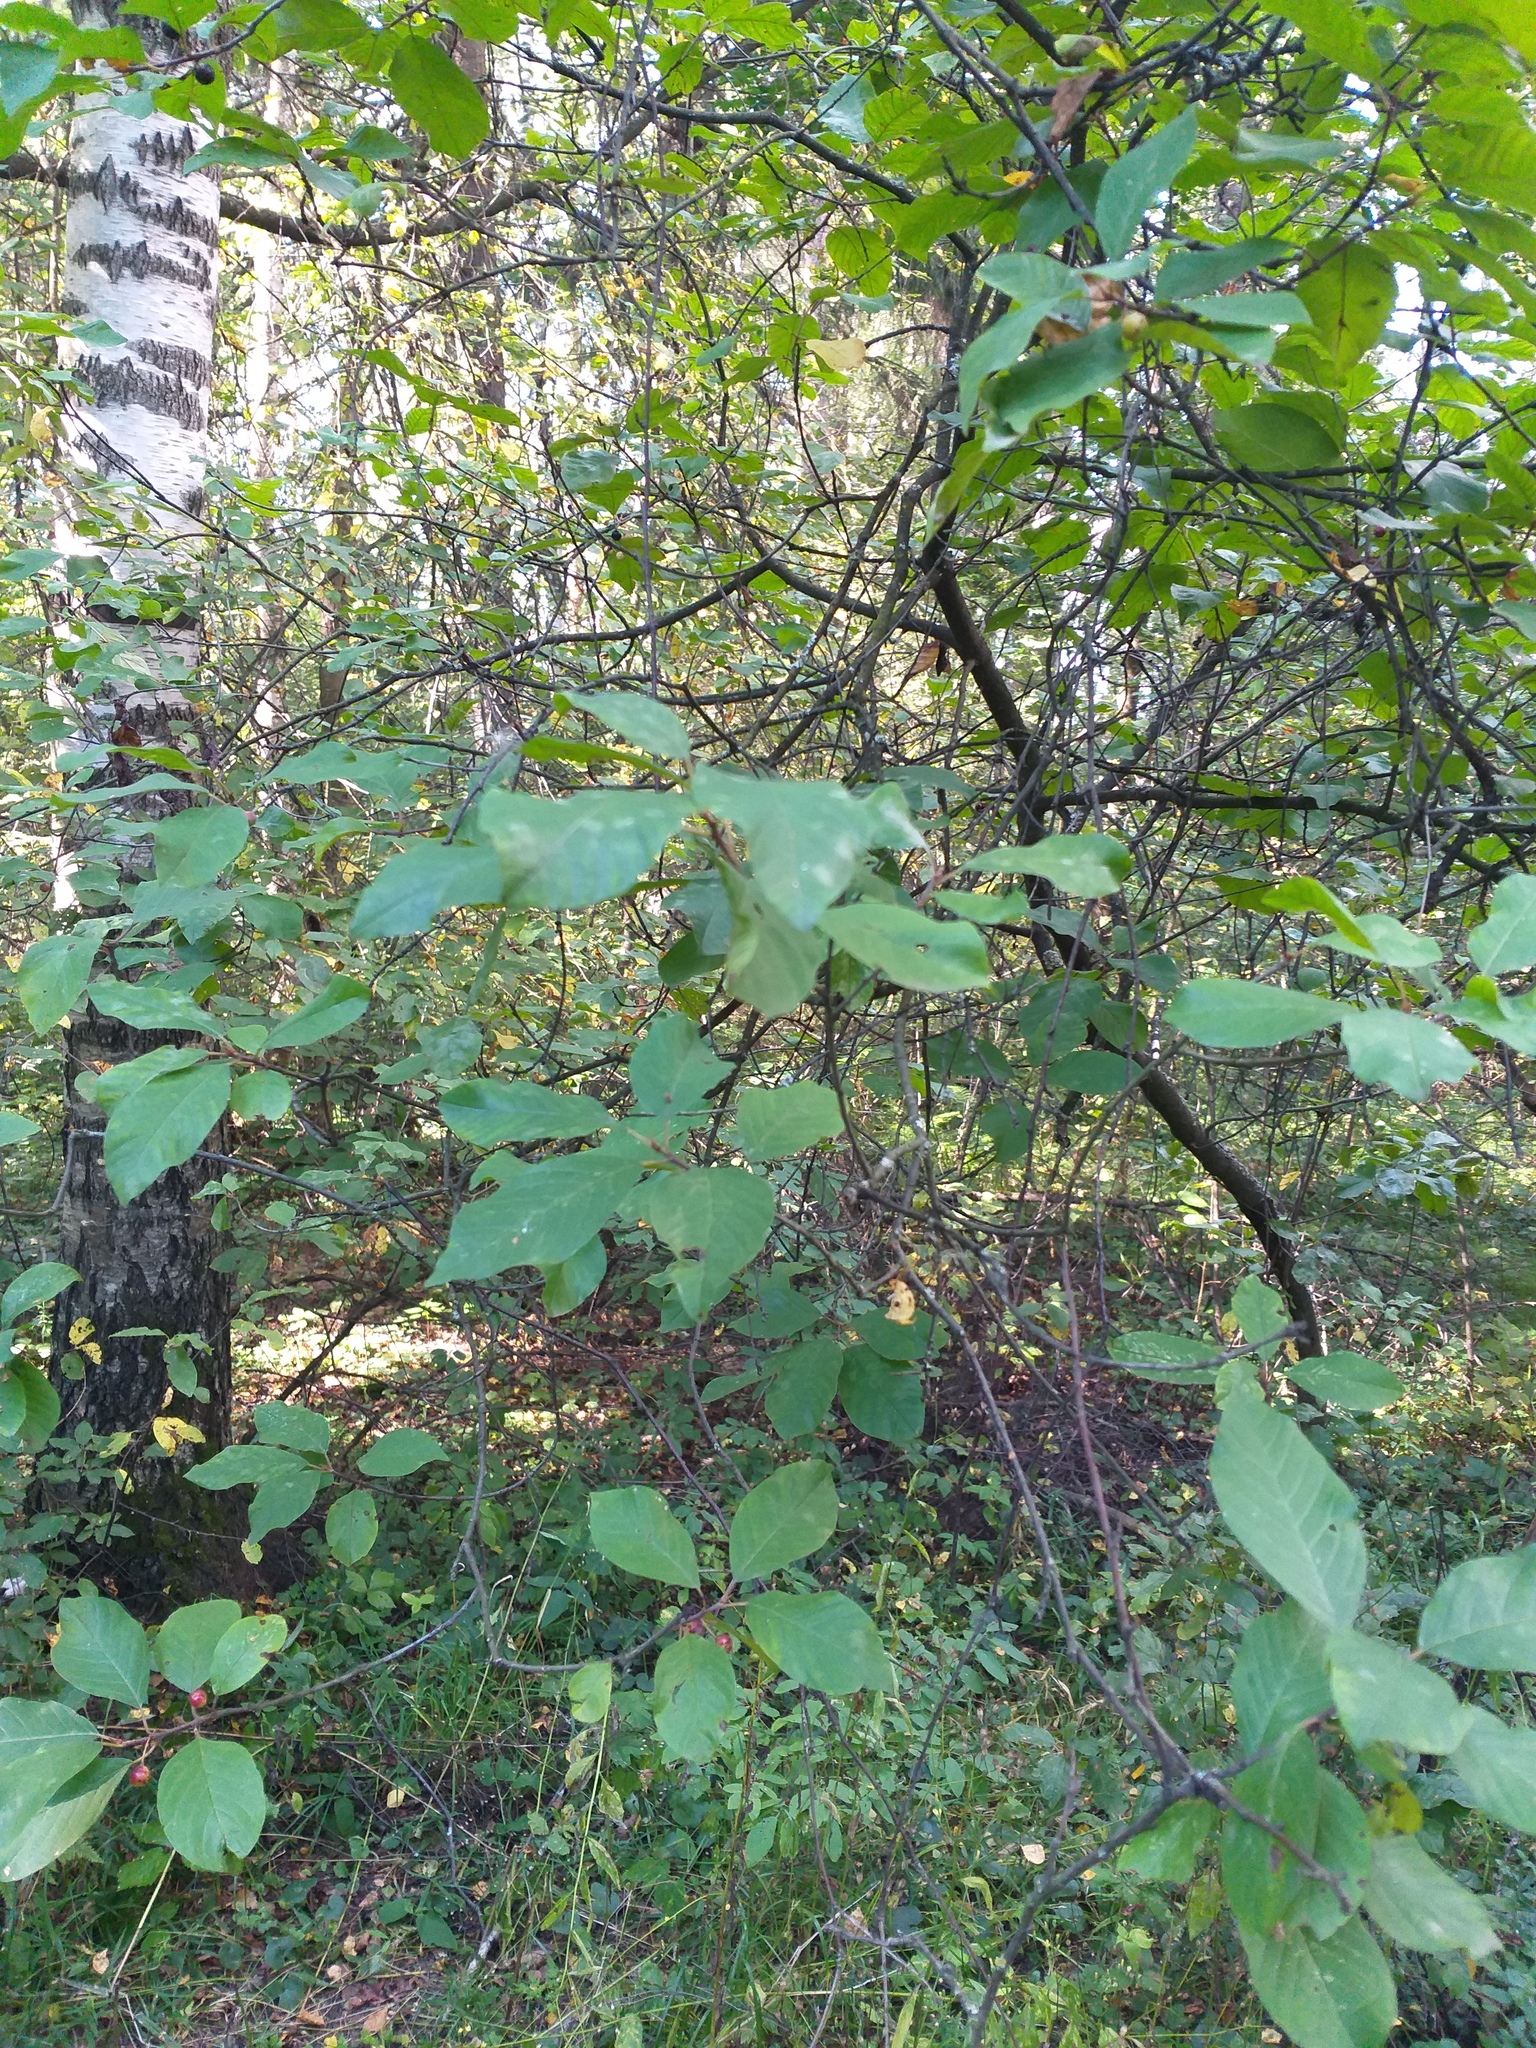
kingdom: Plantae
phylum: Tracheophyta
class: Magnoliopsida
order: Rosales
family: Rhamnaceae
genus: Frangula
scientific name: Frangula alnus
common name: Alder buckthorn
